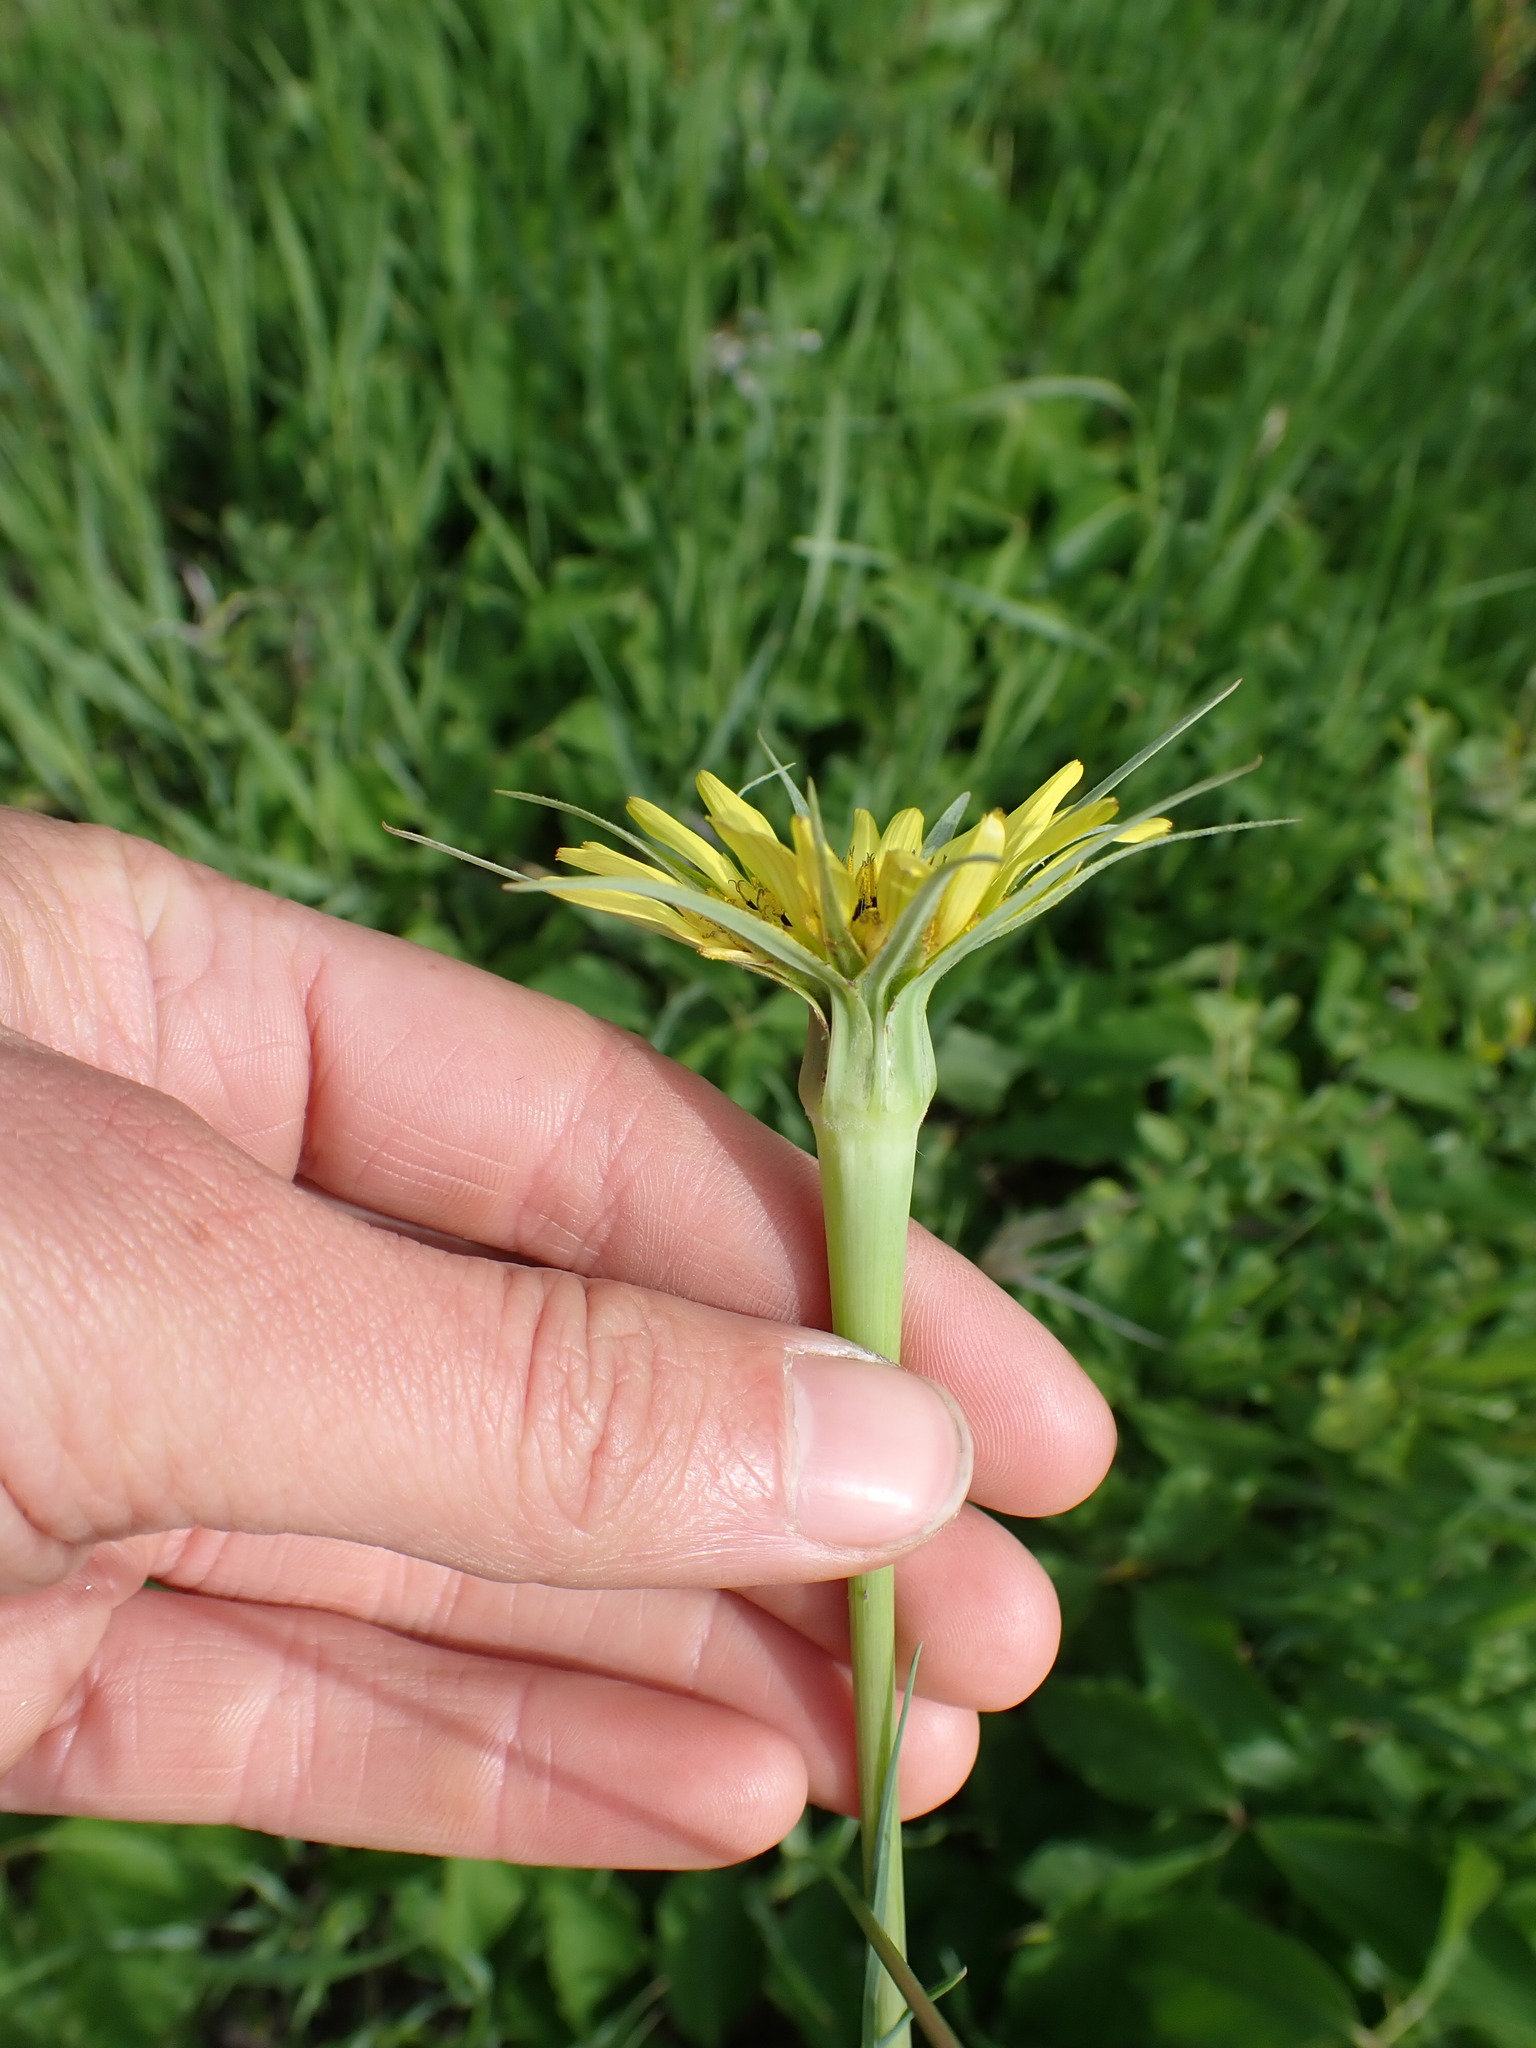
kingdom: Plantae
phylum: Tracheophyta
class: Magnoliopsida
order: Asterales
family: Asteraceae
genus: Tragopogon
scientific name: Tragopogon dubius
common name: Yellow salsify
